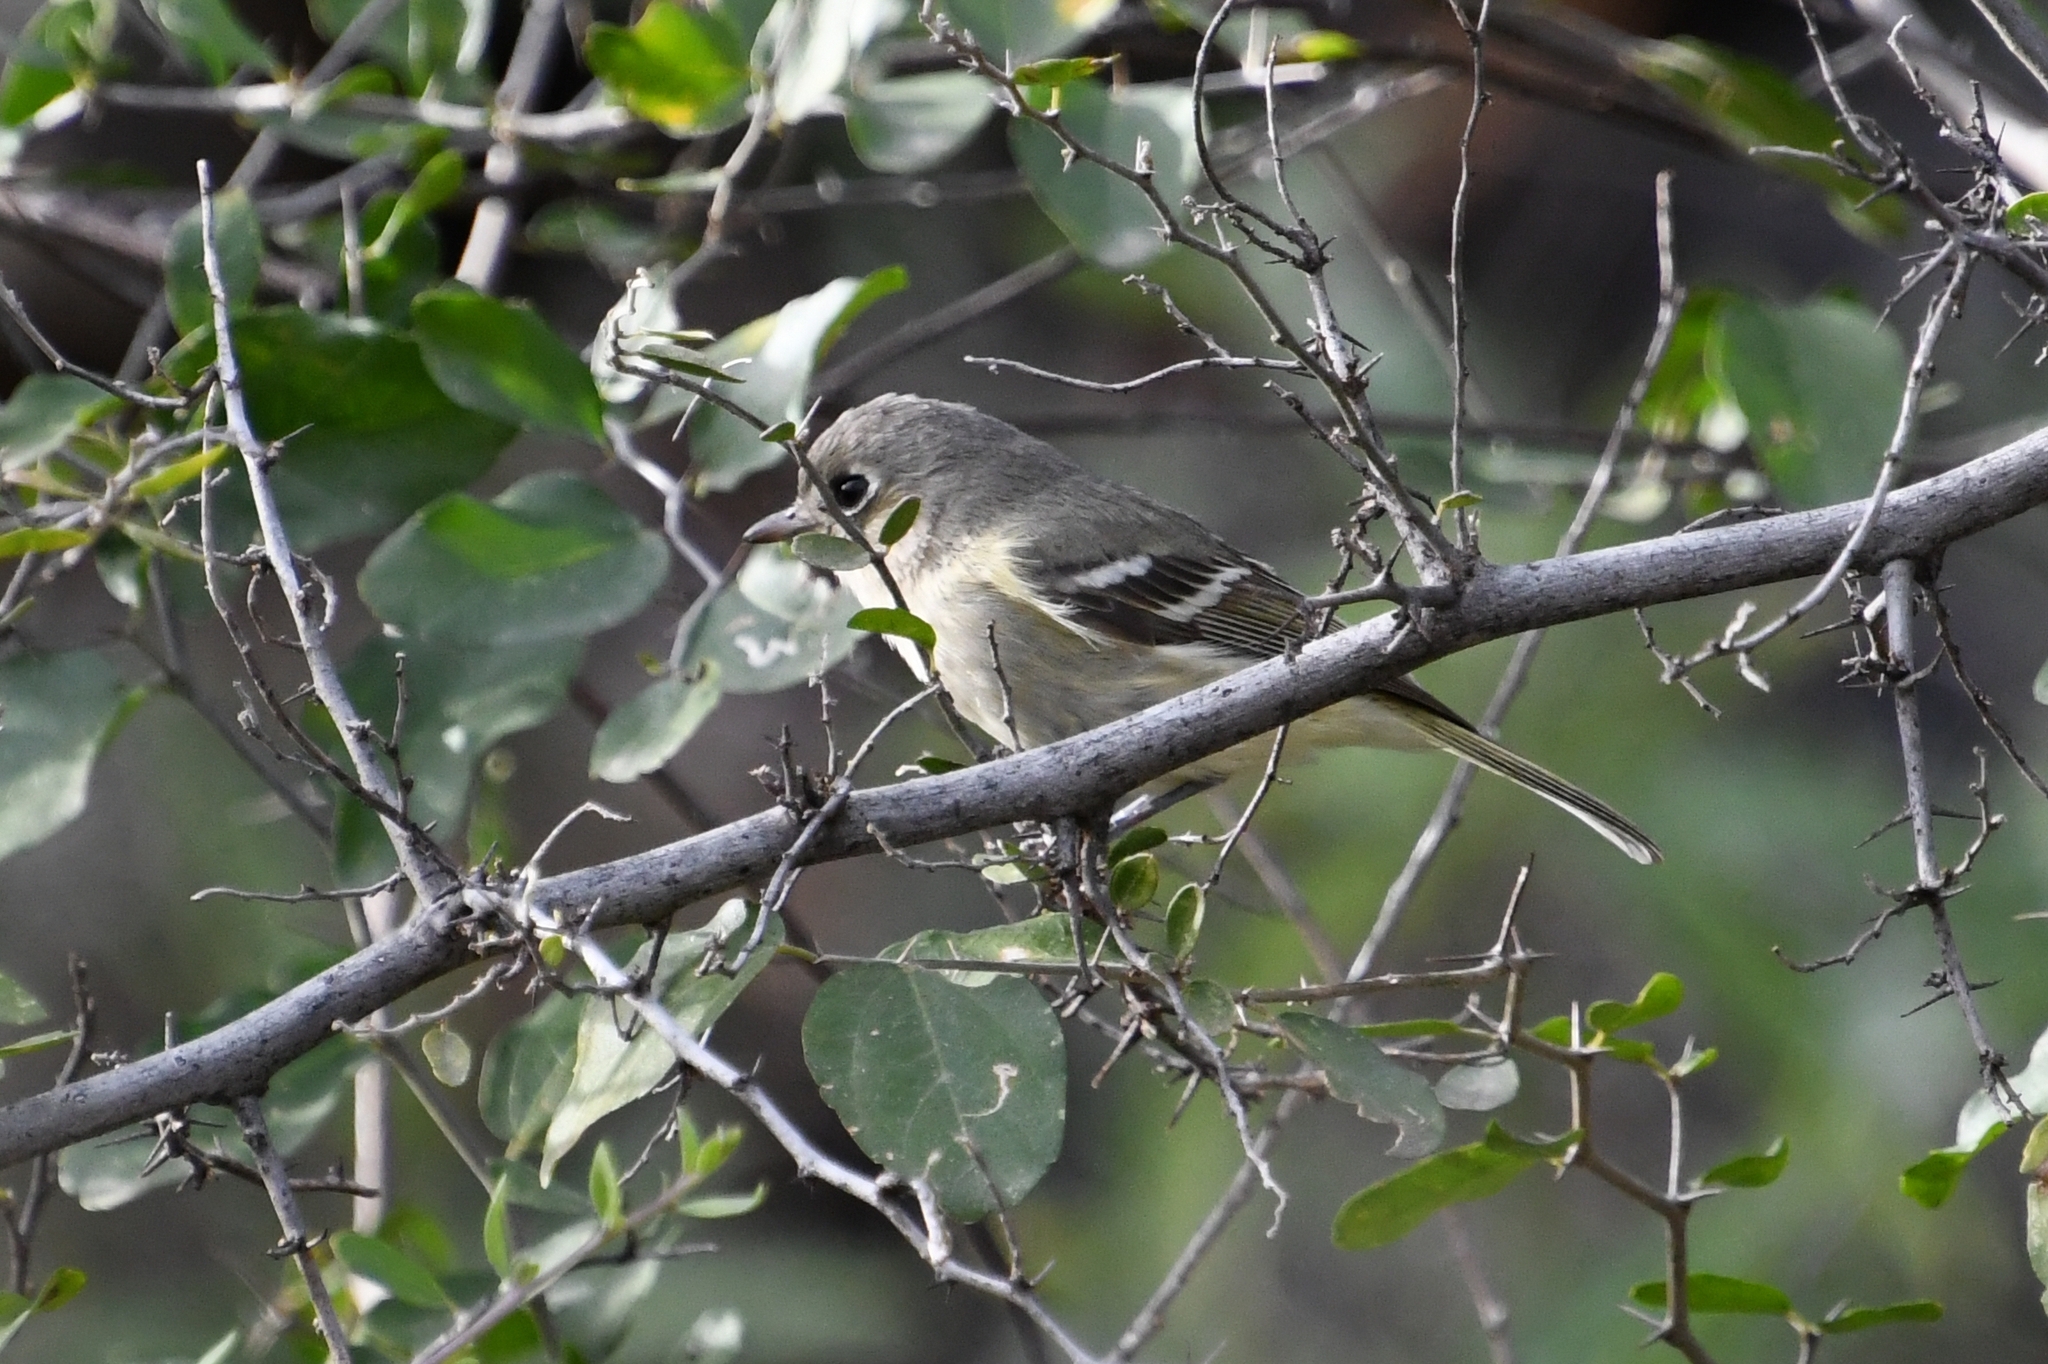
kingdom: Animalia
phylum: Chordata
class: Aves
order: Passeriformes
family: Vireonidae
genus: Vireo
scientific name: Vireo huttoni
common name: Hutton's vireo
